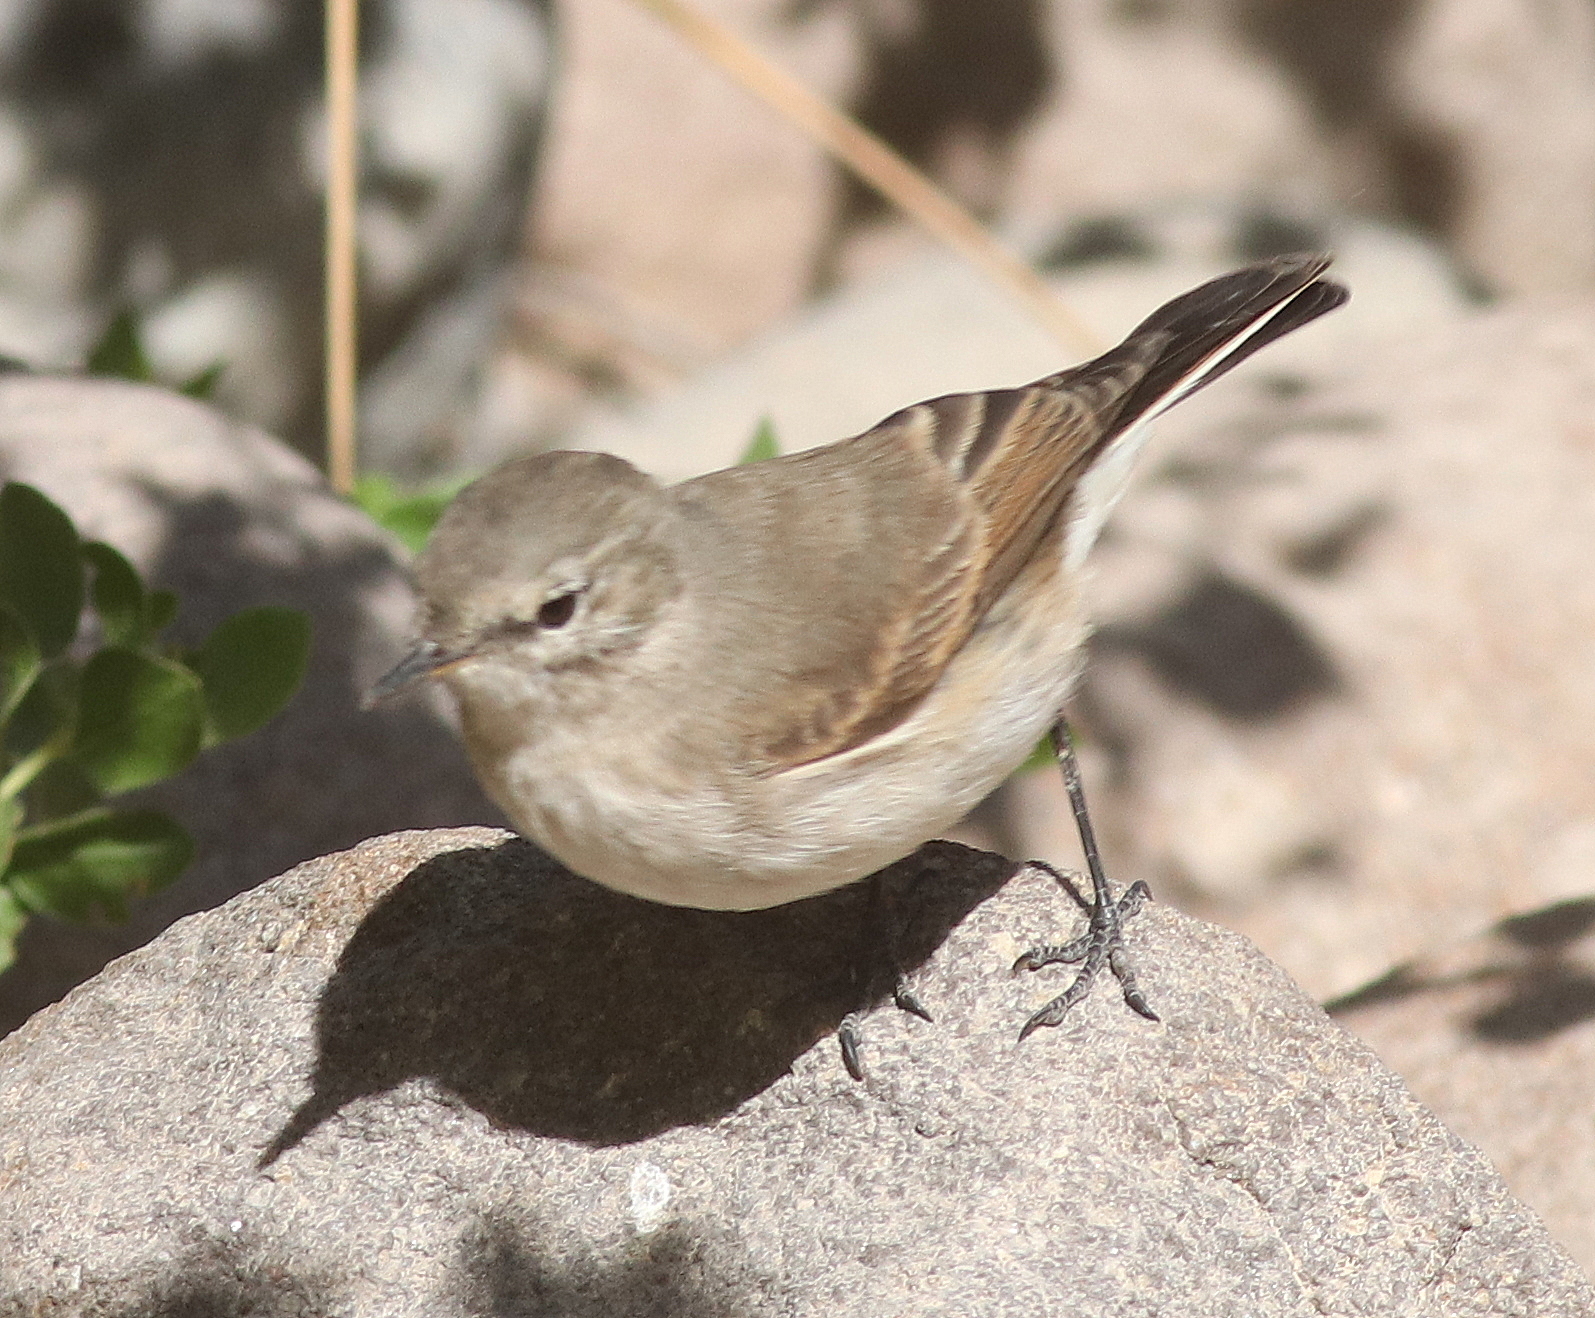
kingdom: Animalia
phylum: Chordata
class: Aves
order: Passeriformes
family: Tyrannidae
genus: Muscisaxicola
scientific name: Muscisaxicola maculirostris
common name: Spot-billed ground tyrant
